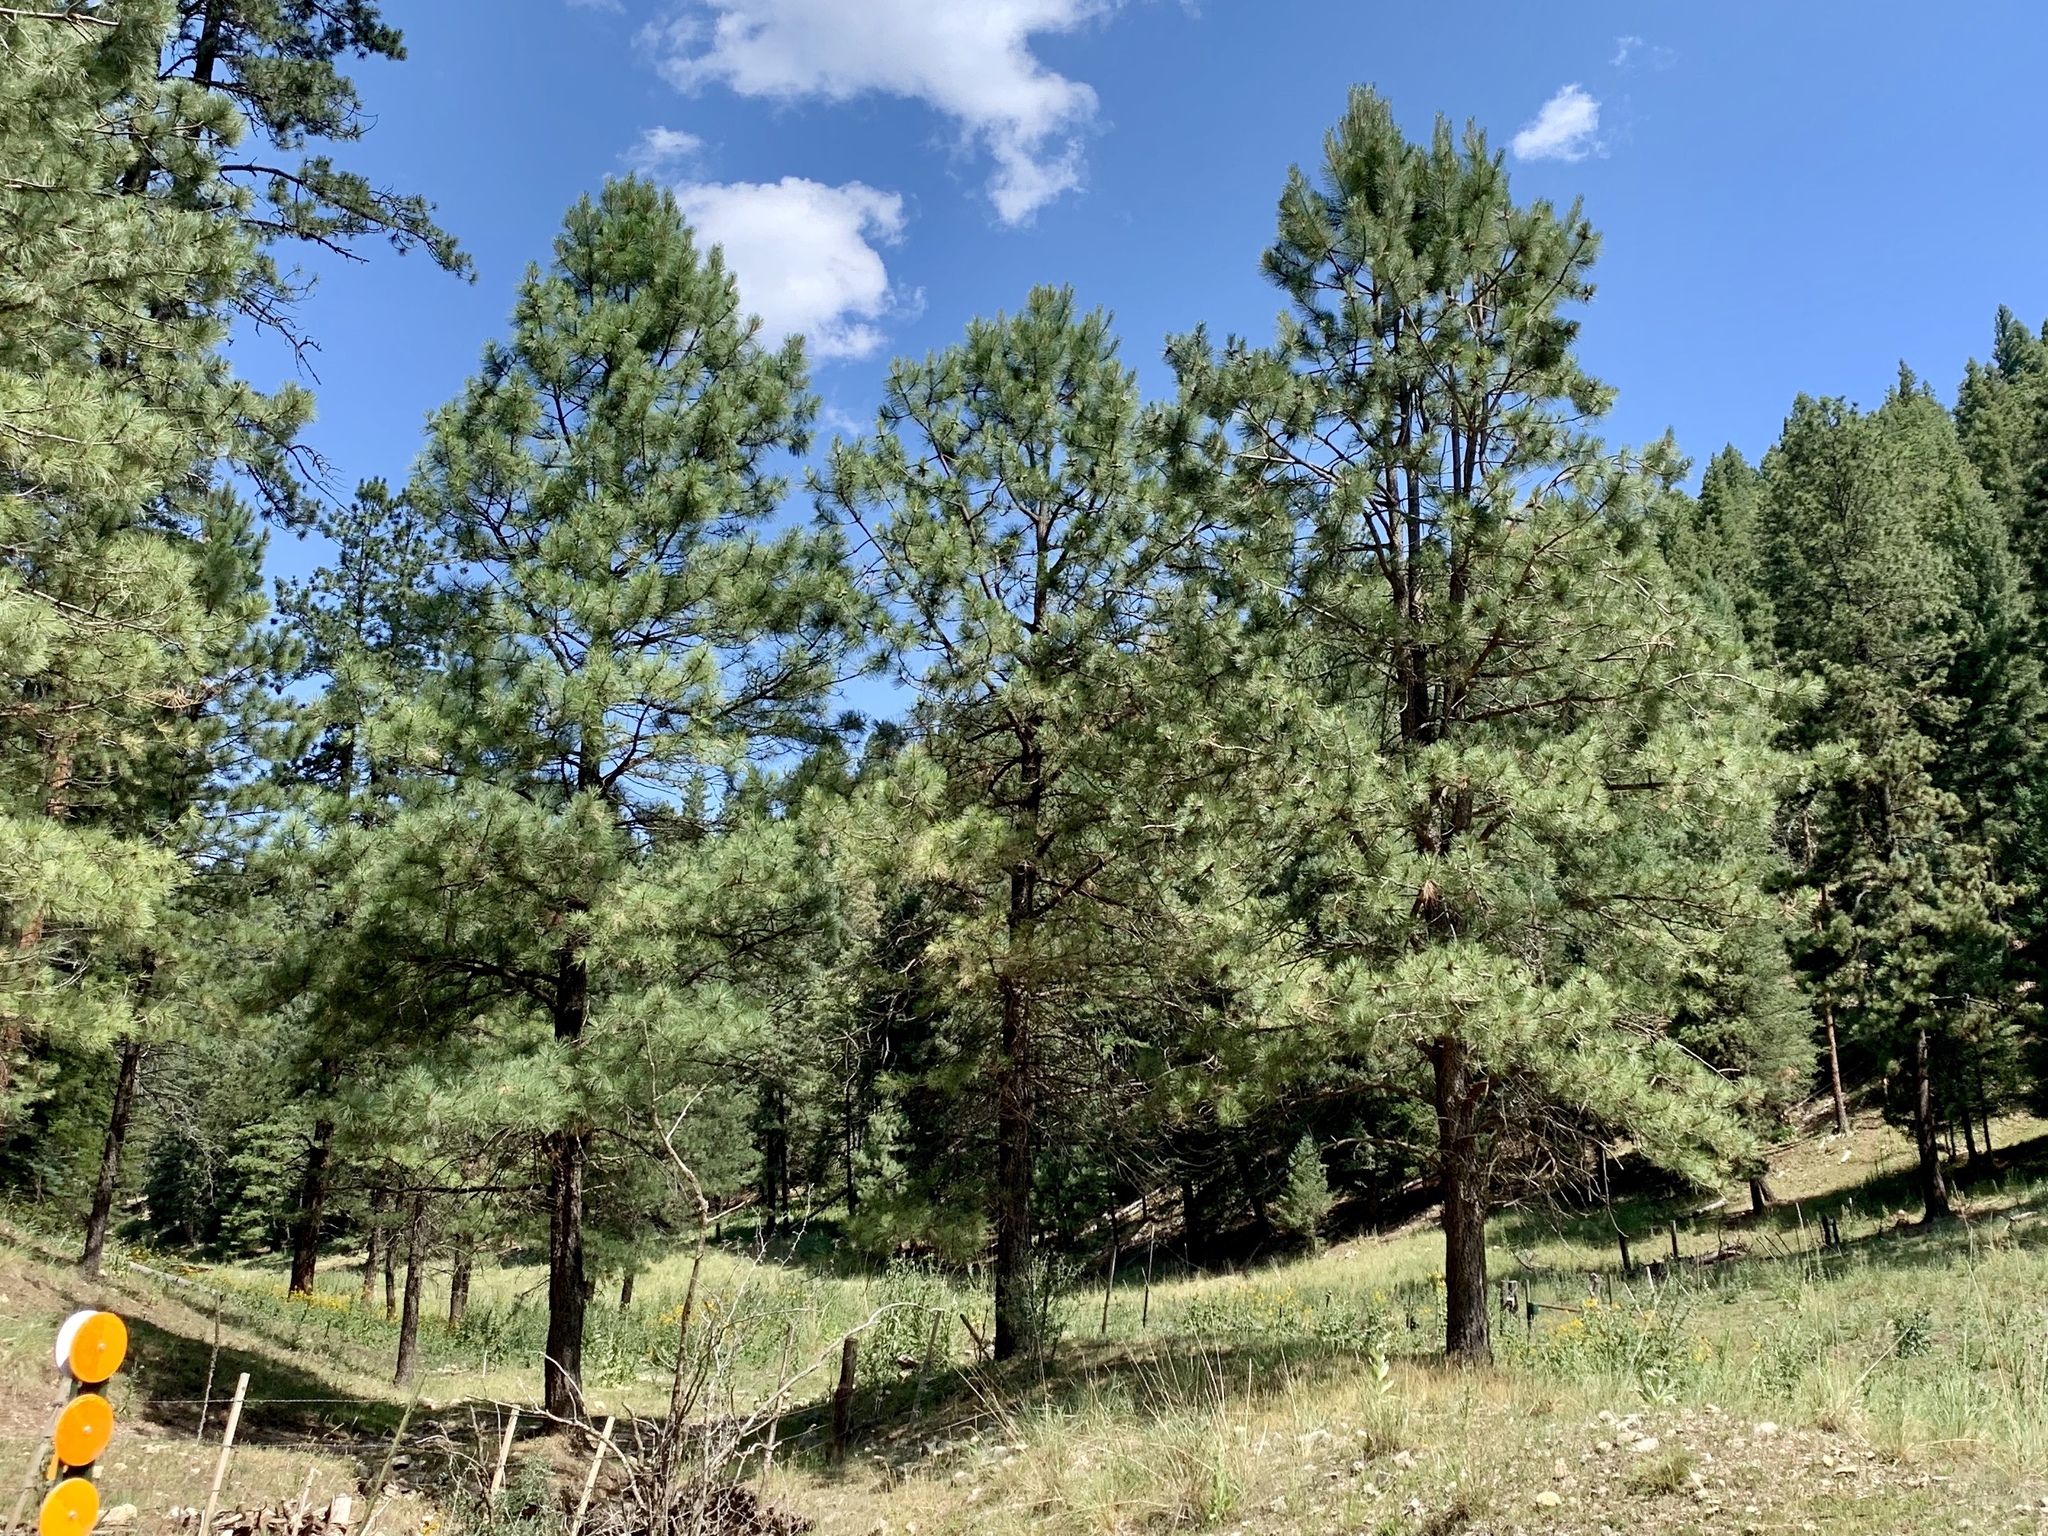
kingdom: Plantae
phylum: Tracheophyta
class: Pinopsida
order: Pinales
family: Pinaceae
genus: Pinus
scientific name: Pinus ponderosa
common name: Western yellow-pine
